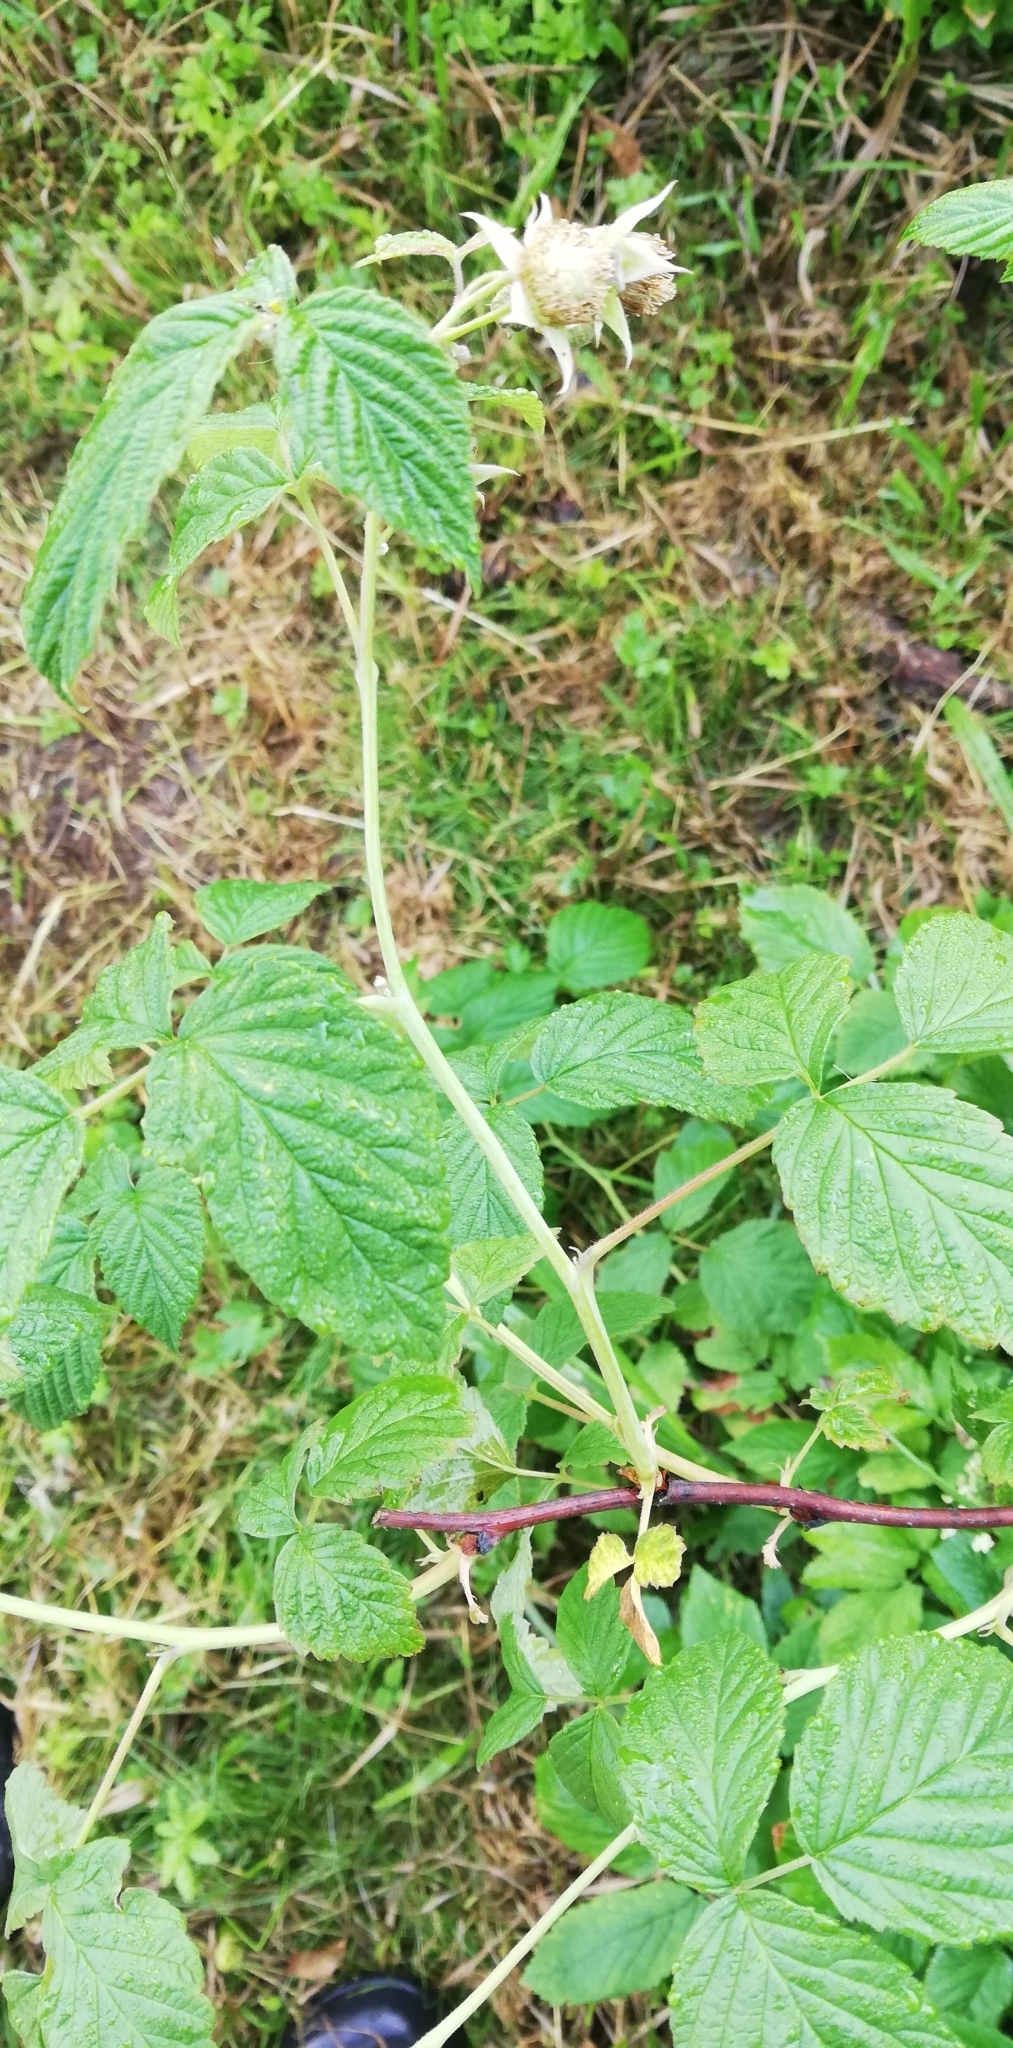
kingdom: Plantae
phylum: Tracheophyta
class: Magnoliopsida
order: Rosales
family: Rosaceae
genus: Rubus
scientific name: Rubus idaeus
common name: Raspberry
